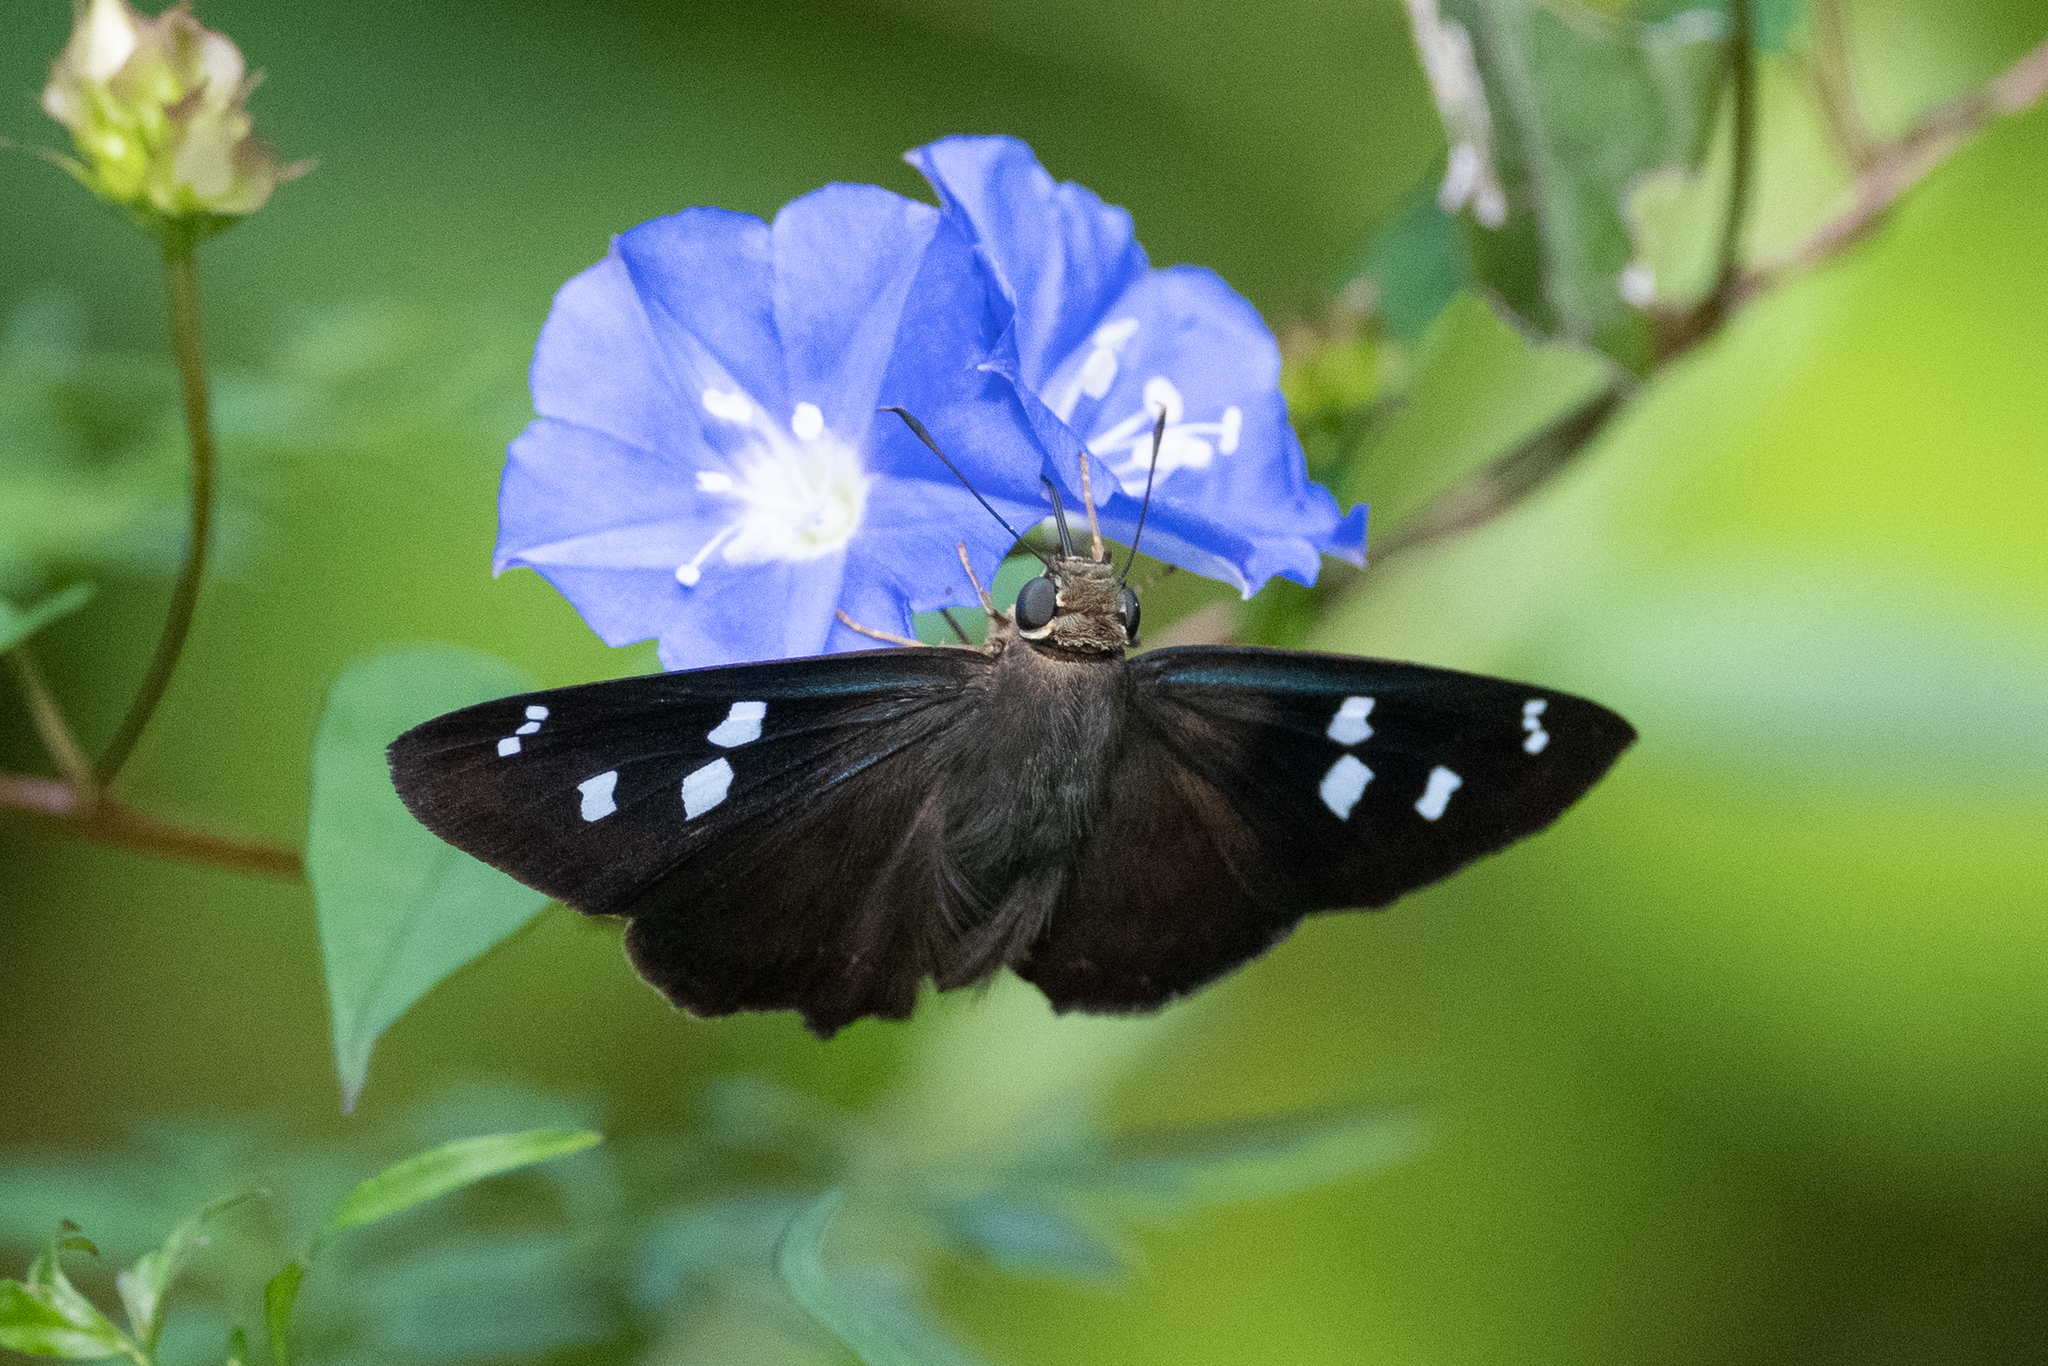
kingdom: Animalia
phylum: Arthropoda
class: Insecta
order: Lepidoptera
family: Hesperiidae
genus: Polygonus
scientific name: Polygonus leo
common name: Hammoch skipper
